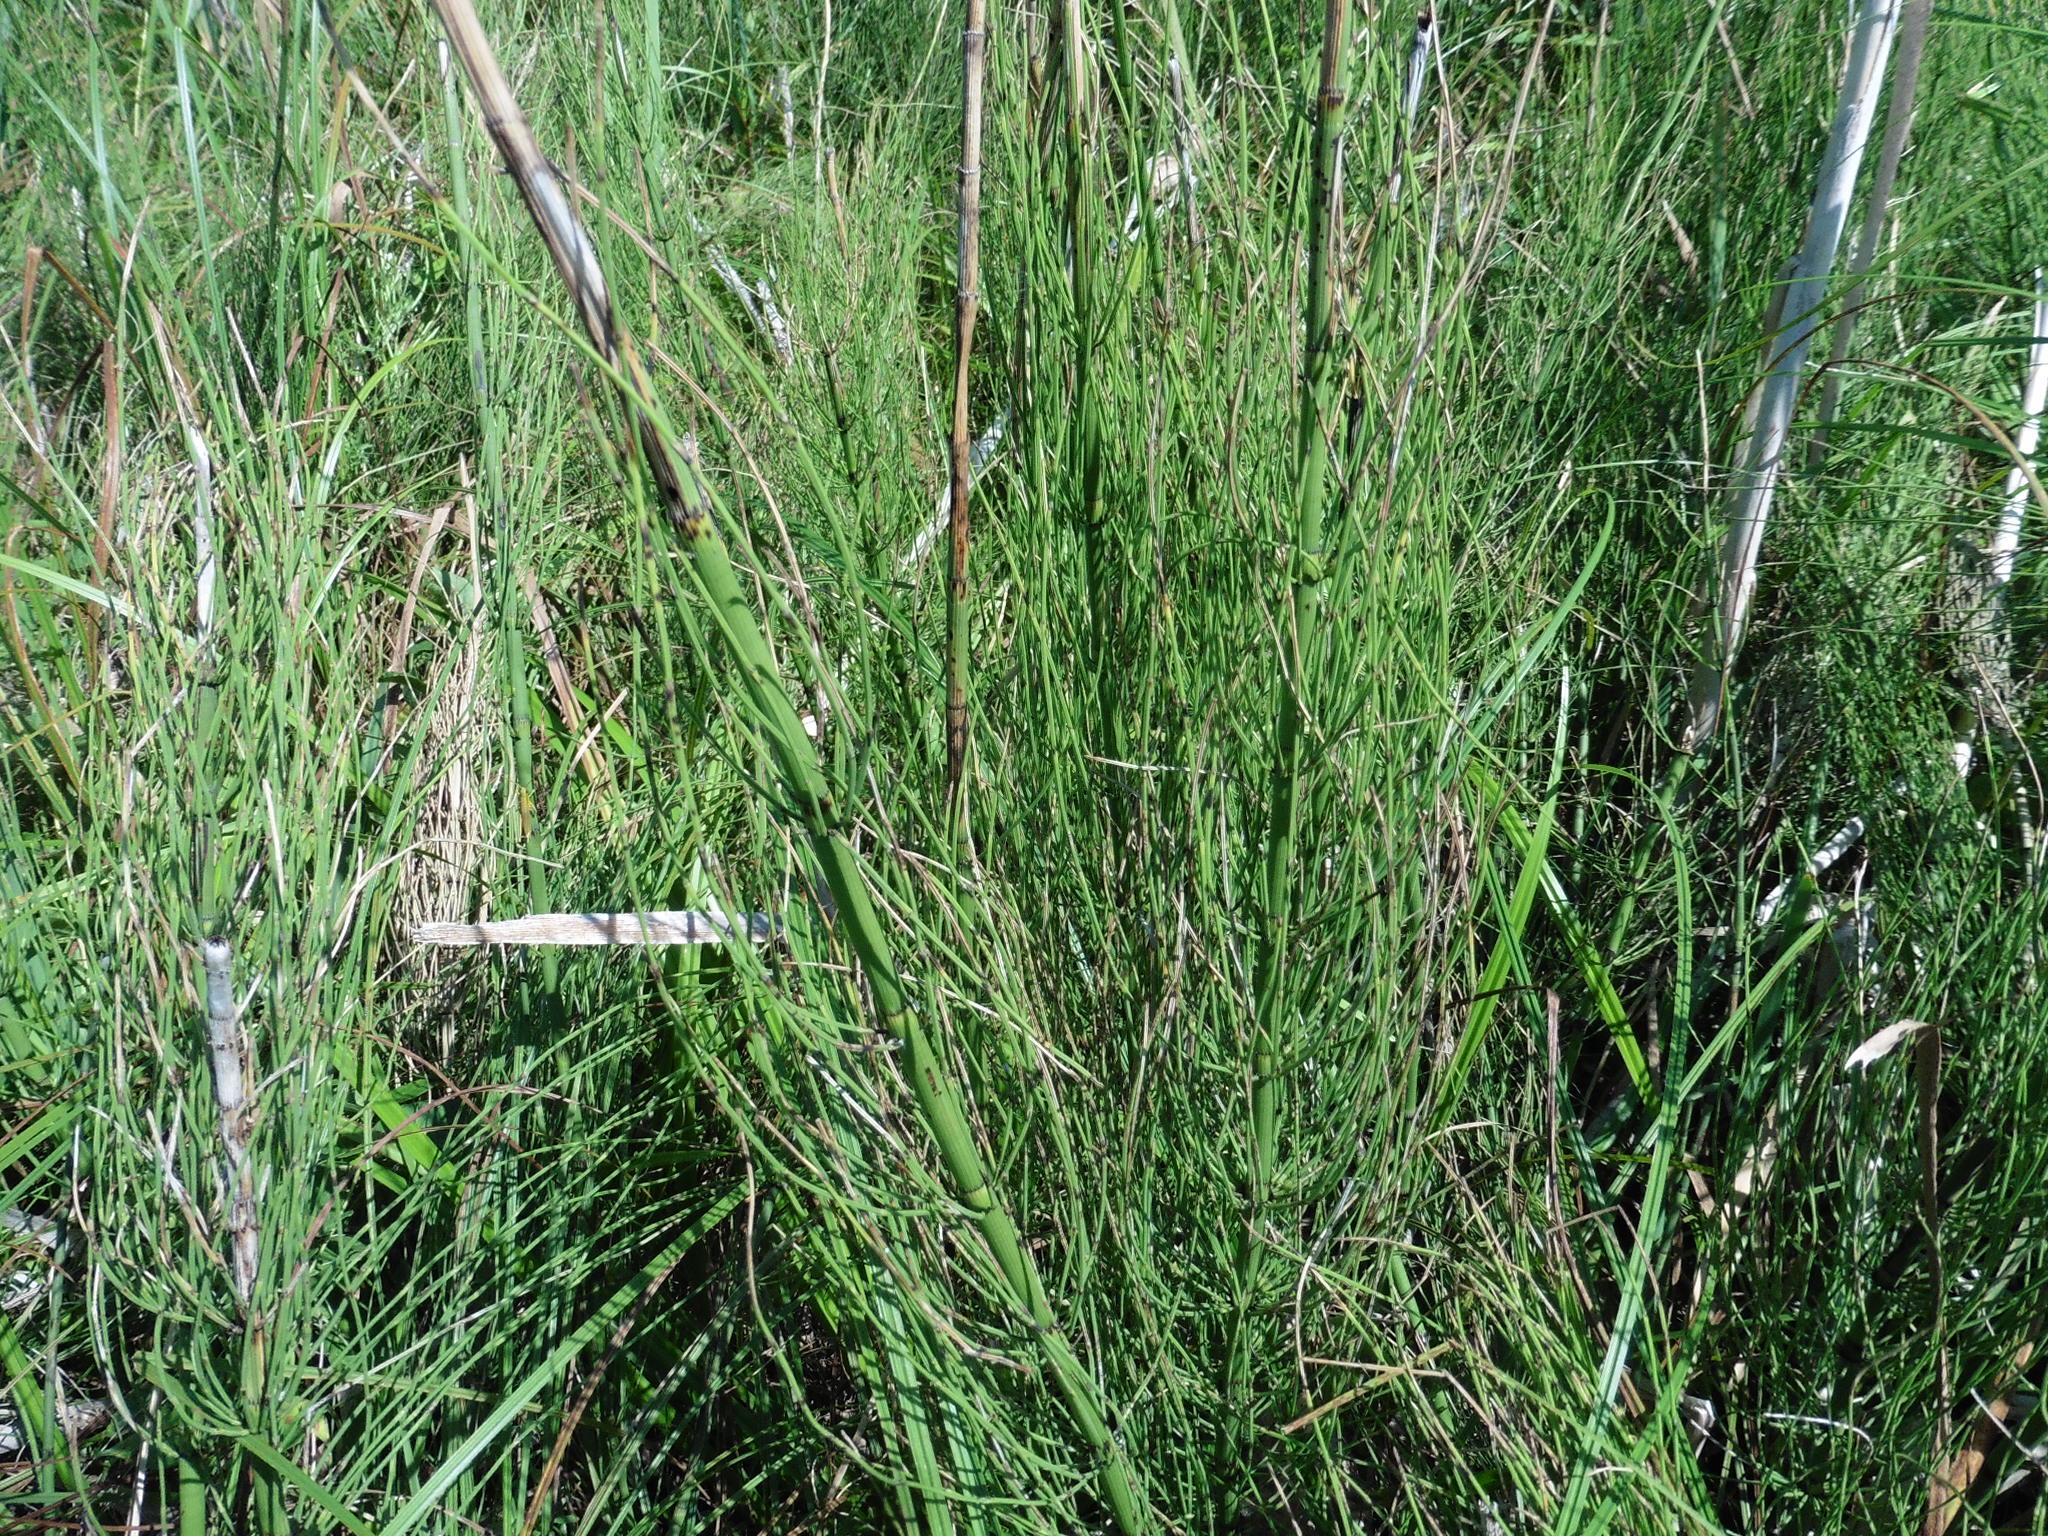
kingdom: Plantae
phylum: Tracheophyta
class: Polypodiopsida
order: Equisetales
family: Equisetaceae
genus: Equisetum
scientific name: Equisetum fluviatile
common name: Water horsetail
